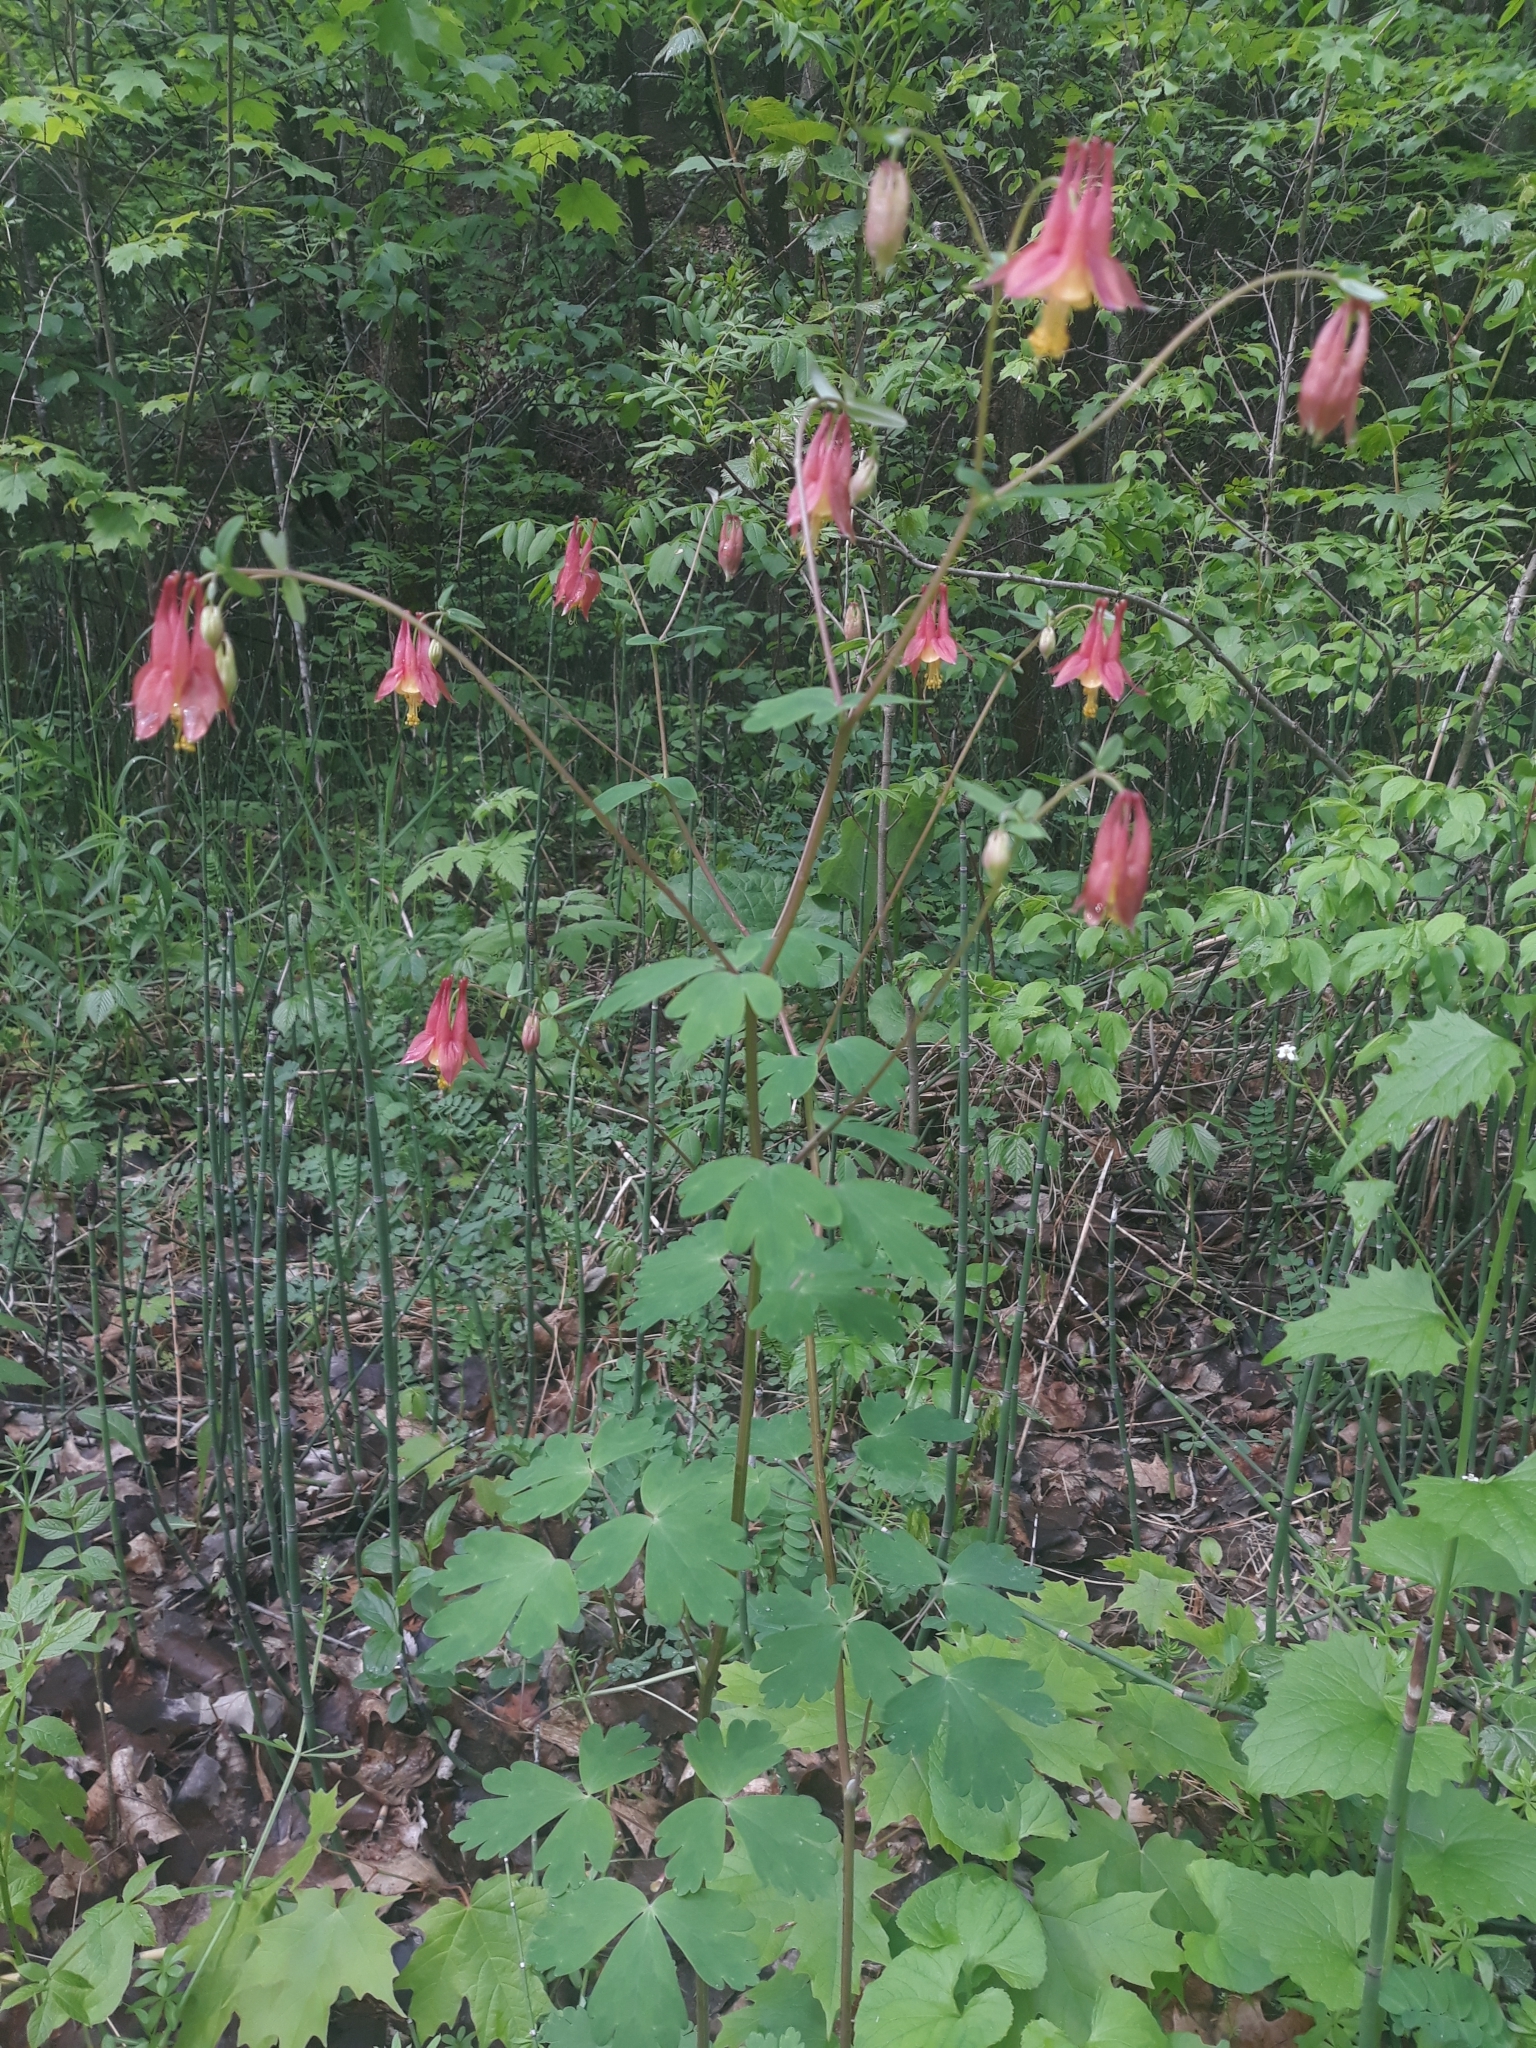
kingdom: Plantae
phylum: Tracheophyta
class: Magnoliopsida
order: Ranunculales
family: Ranunculaceae
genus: Aquilegia
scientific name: Aquilegia canadensis
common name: American columbine
